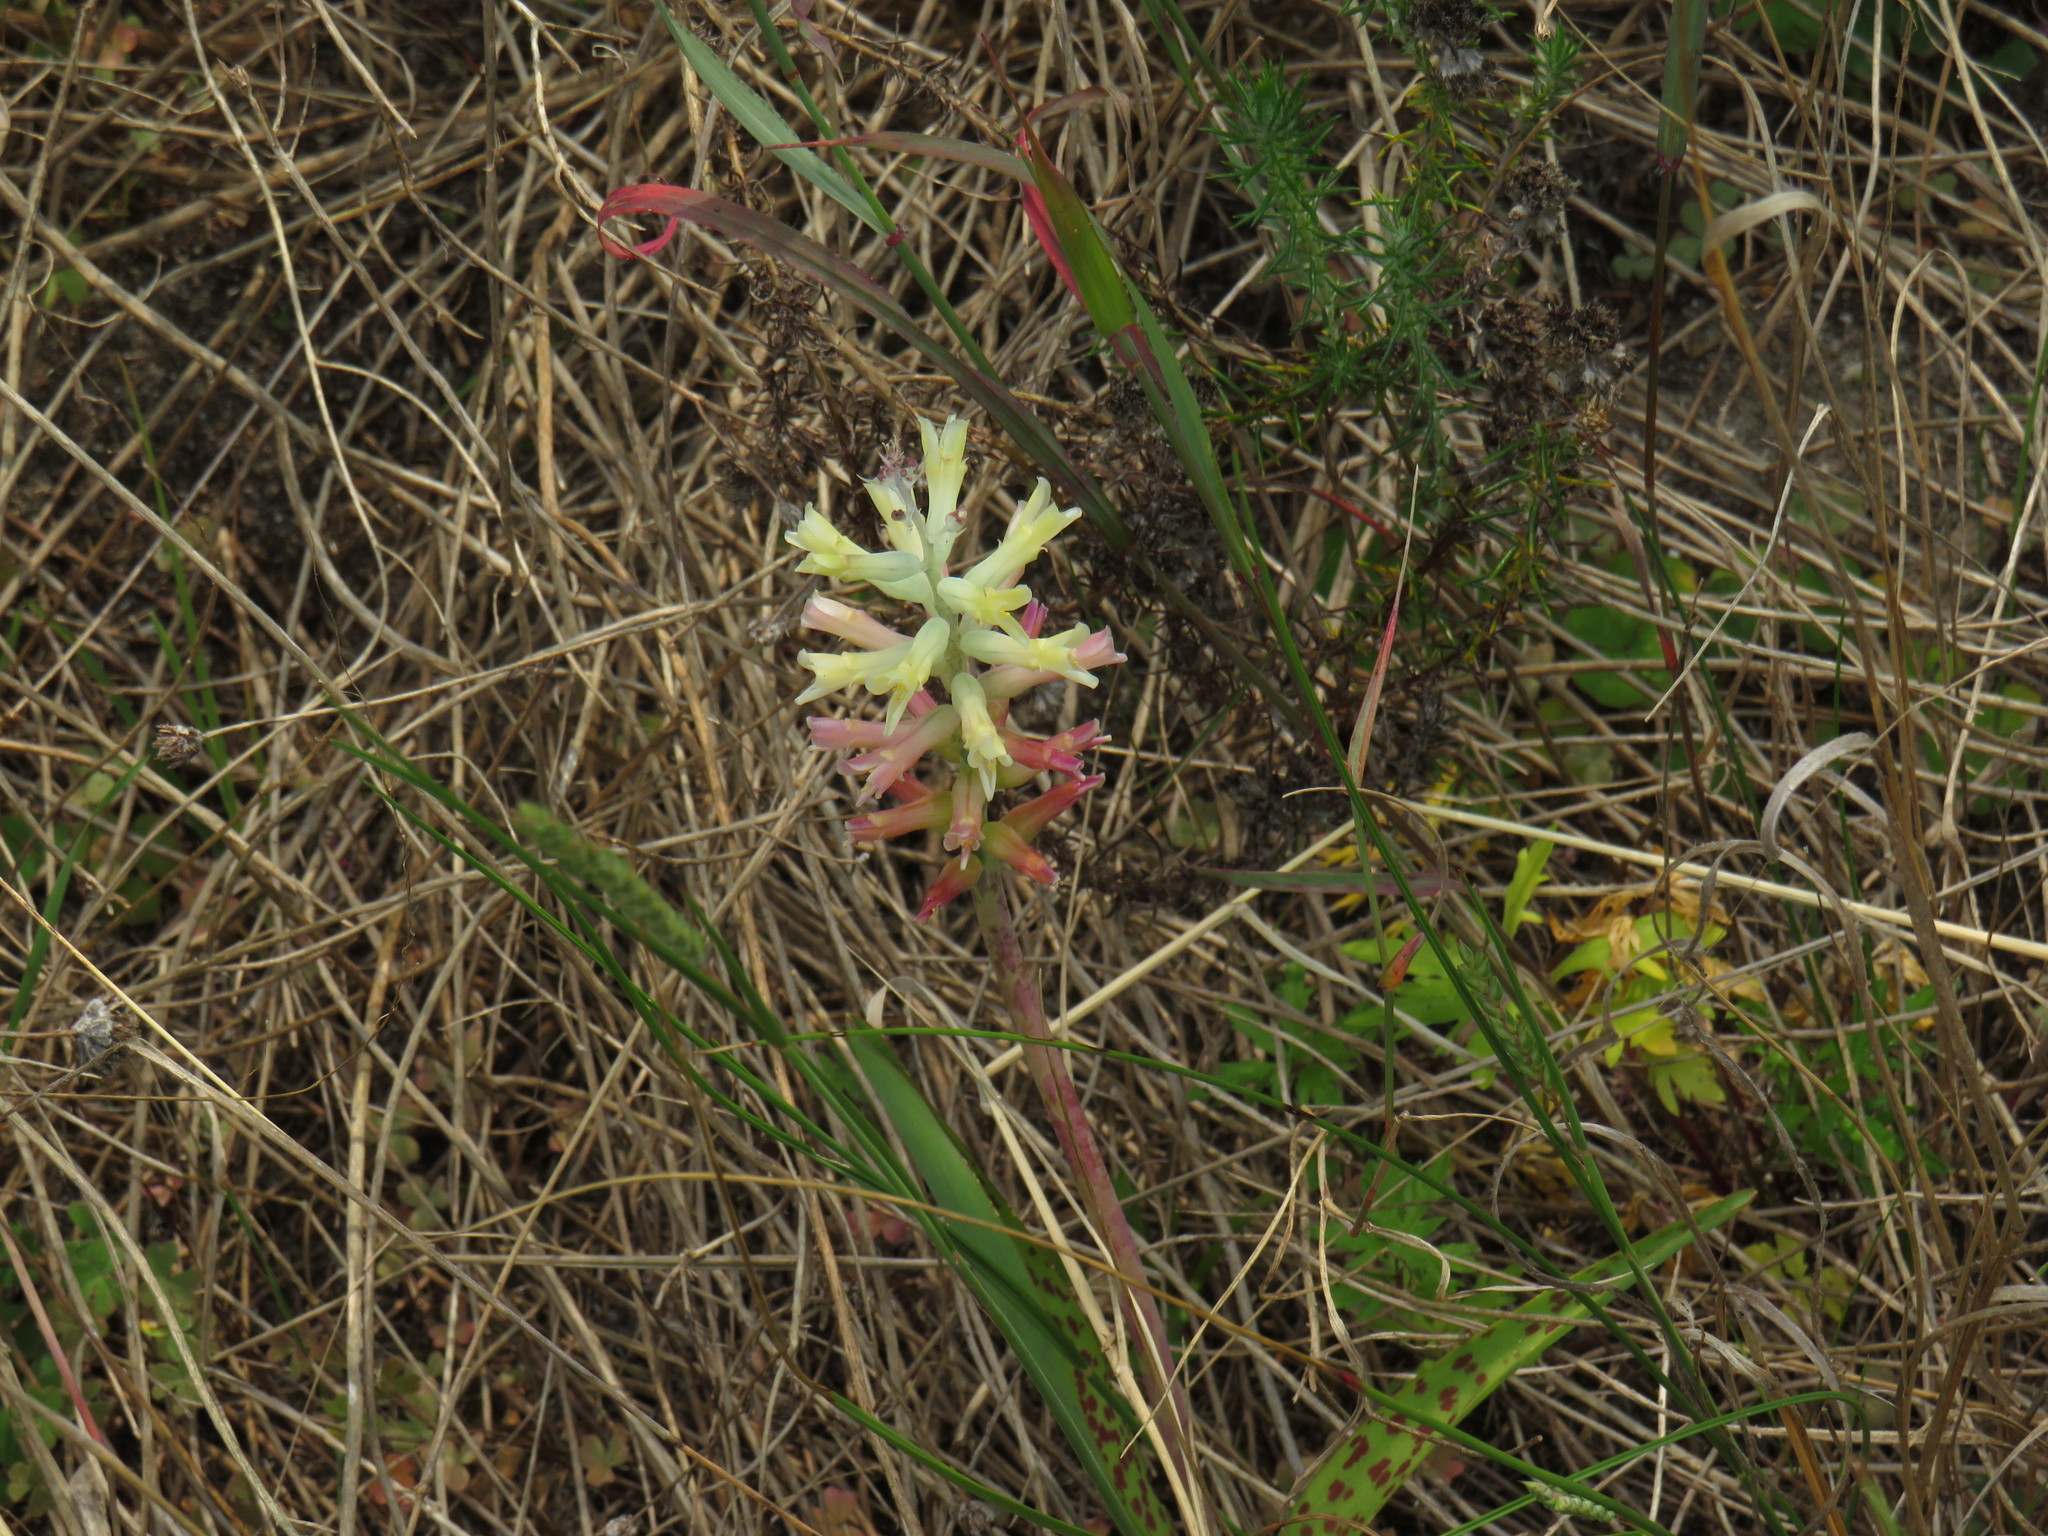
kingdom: Plantae
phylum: Tracheophyta
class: Liliopsida
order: Asparagales
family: Asparagaceae
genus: Lachenalia
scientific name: Lachenalia orchioides
